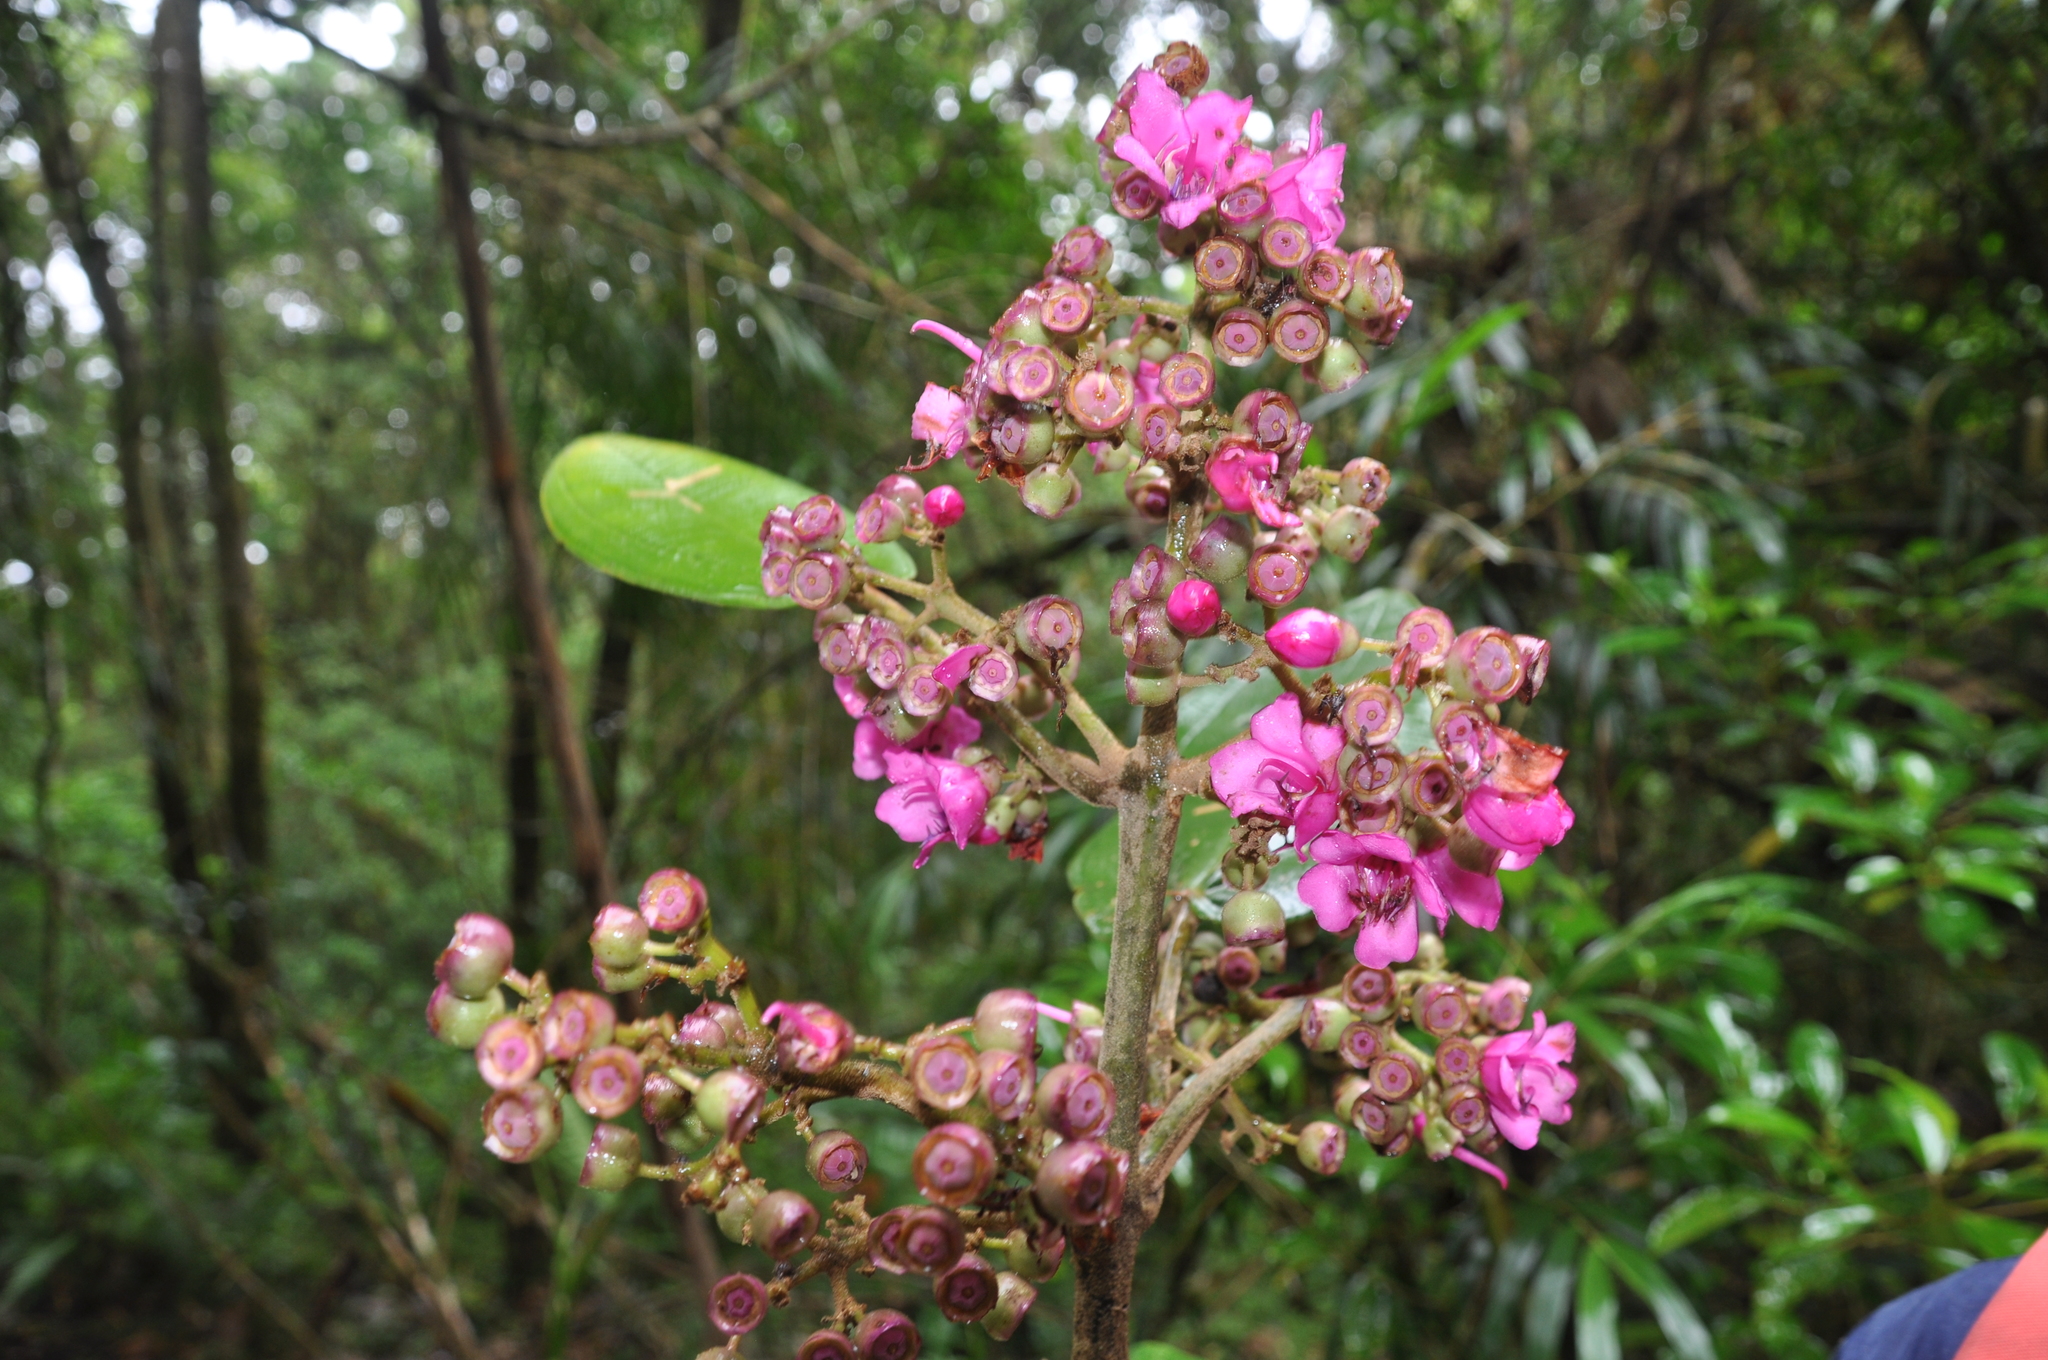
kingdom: Plantae
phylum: Tracheophyta
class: Magnoliopsida
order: Myrtales
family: Melastomataceae
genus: Meriania
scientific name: Meriania macrophylla
